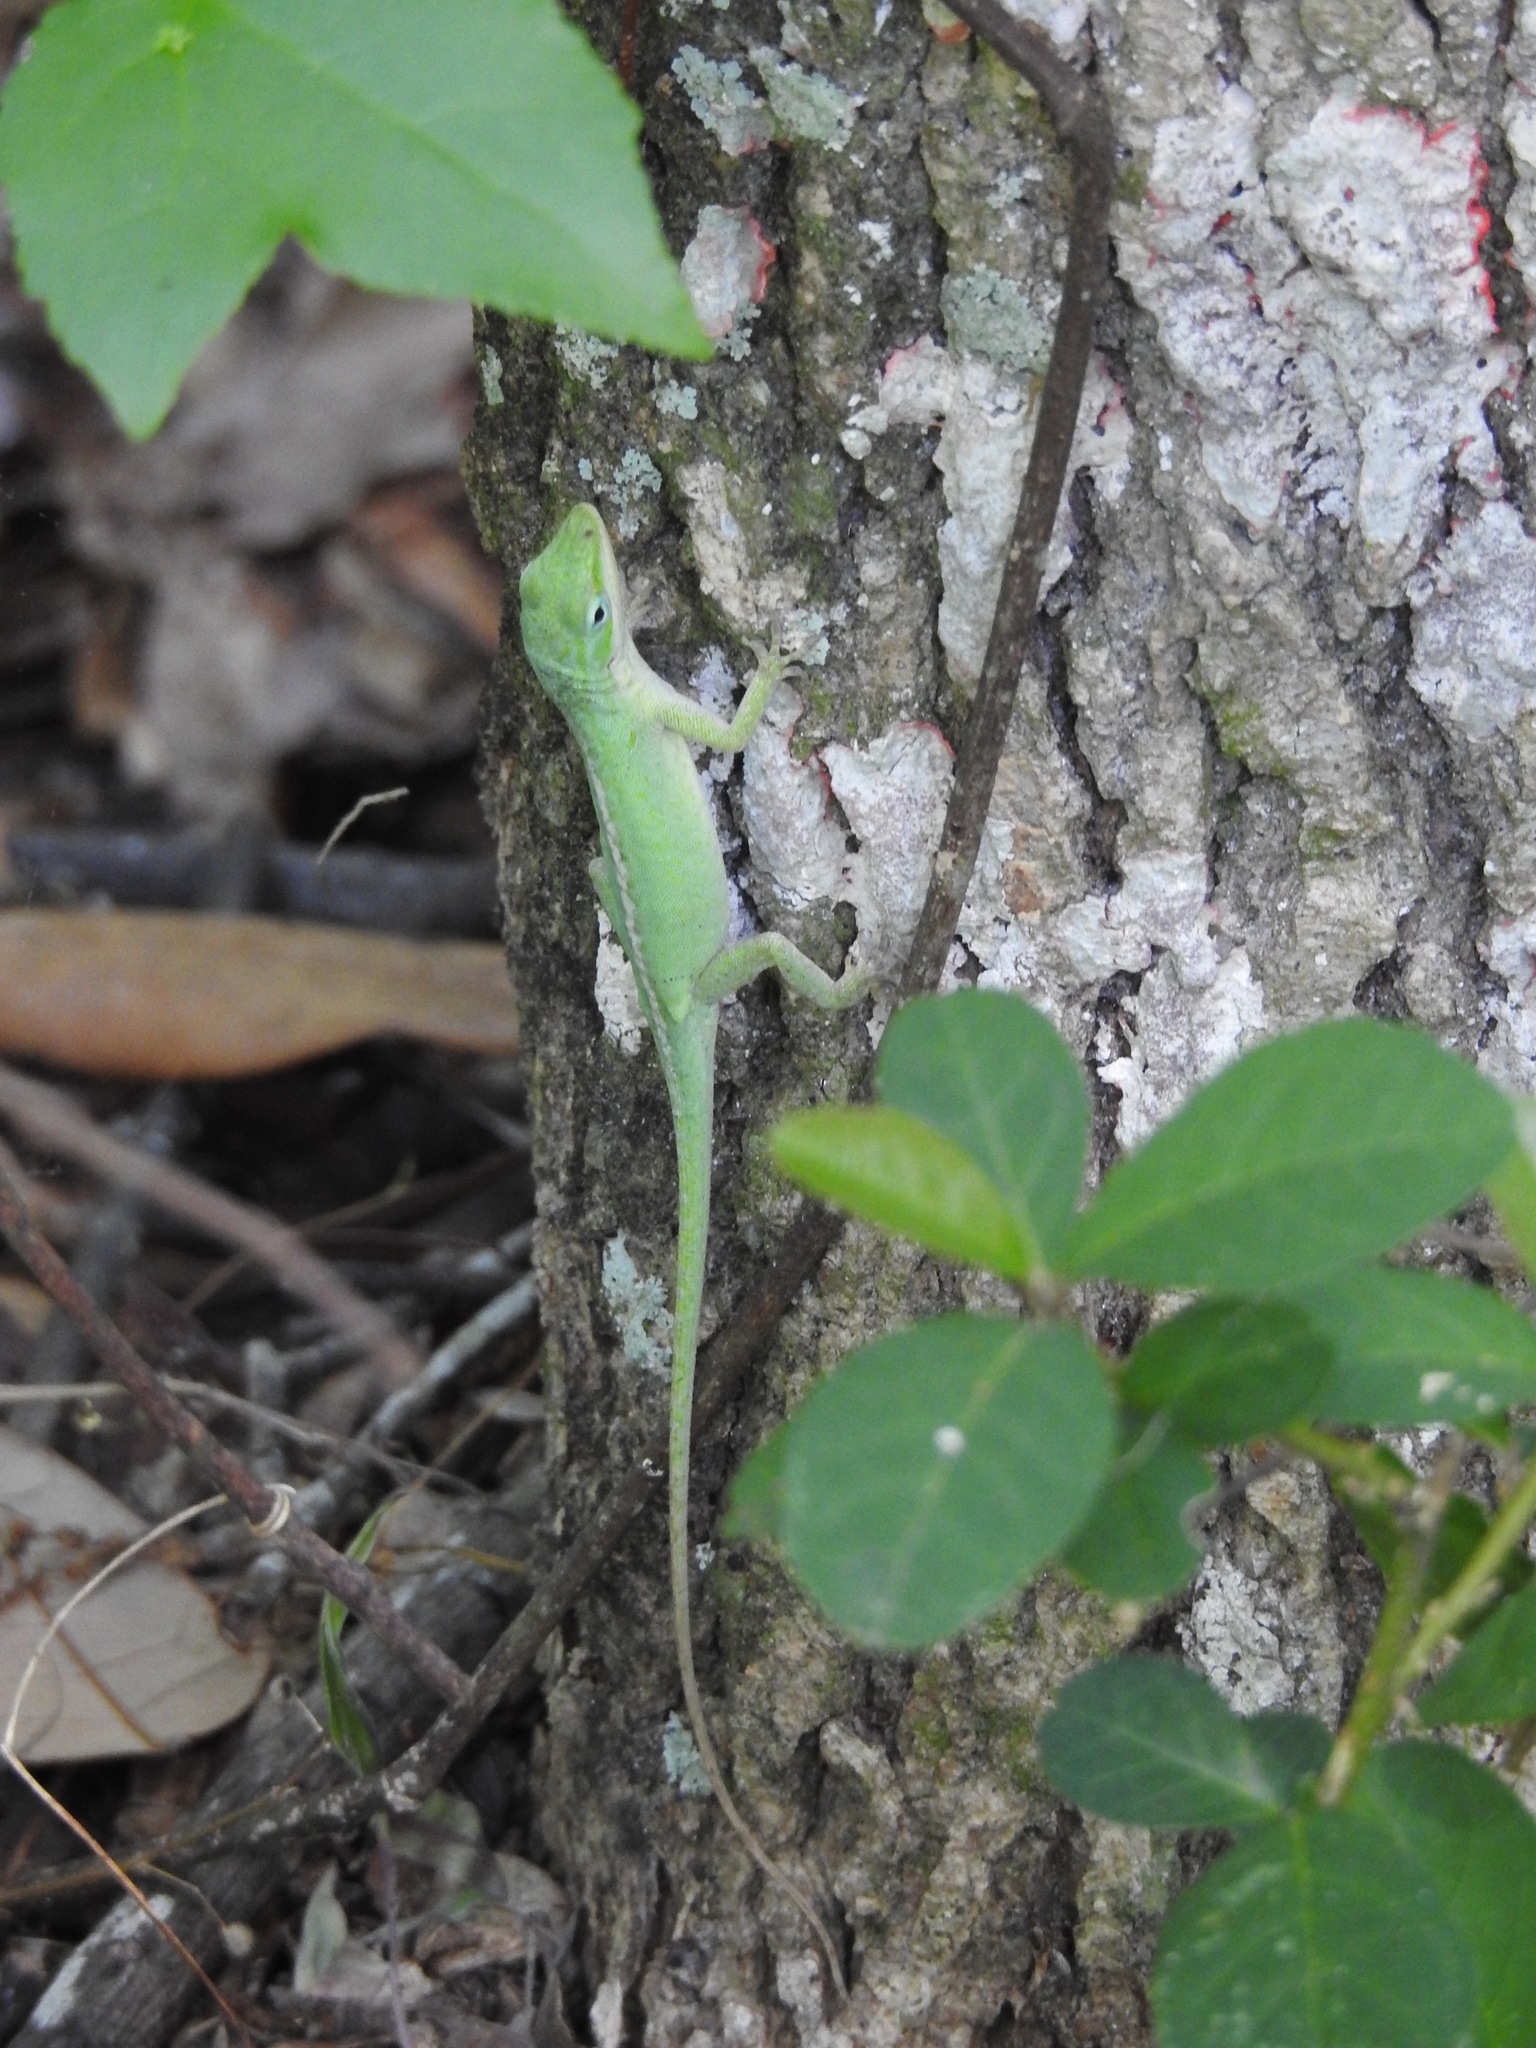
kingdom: Animalia
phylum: Chordata
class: Squamata
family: Dactyloidae
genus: Anolis
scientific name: Anolis carolinensis
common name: Green anole
